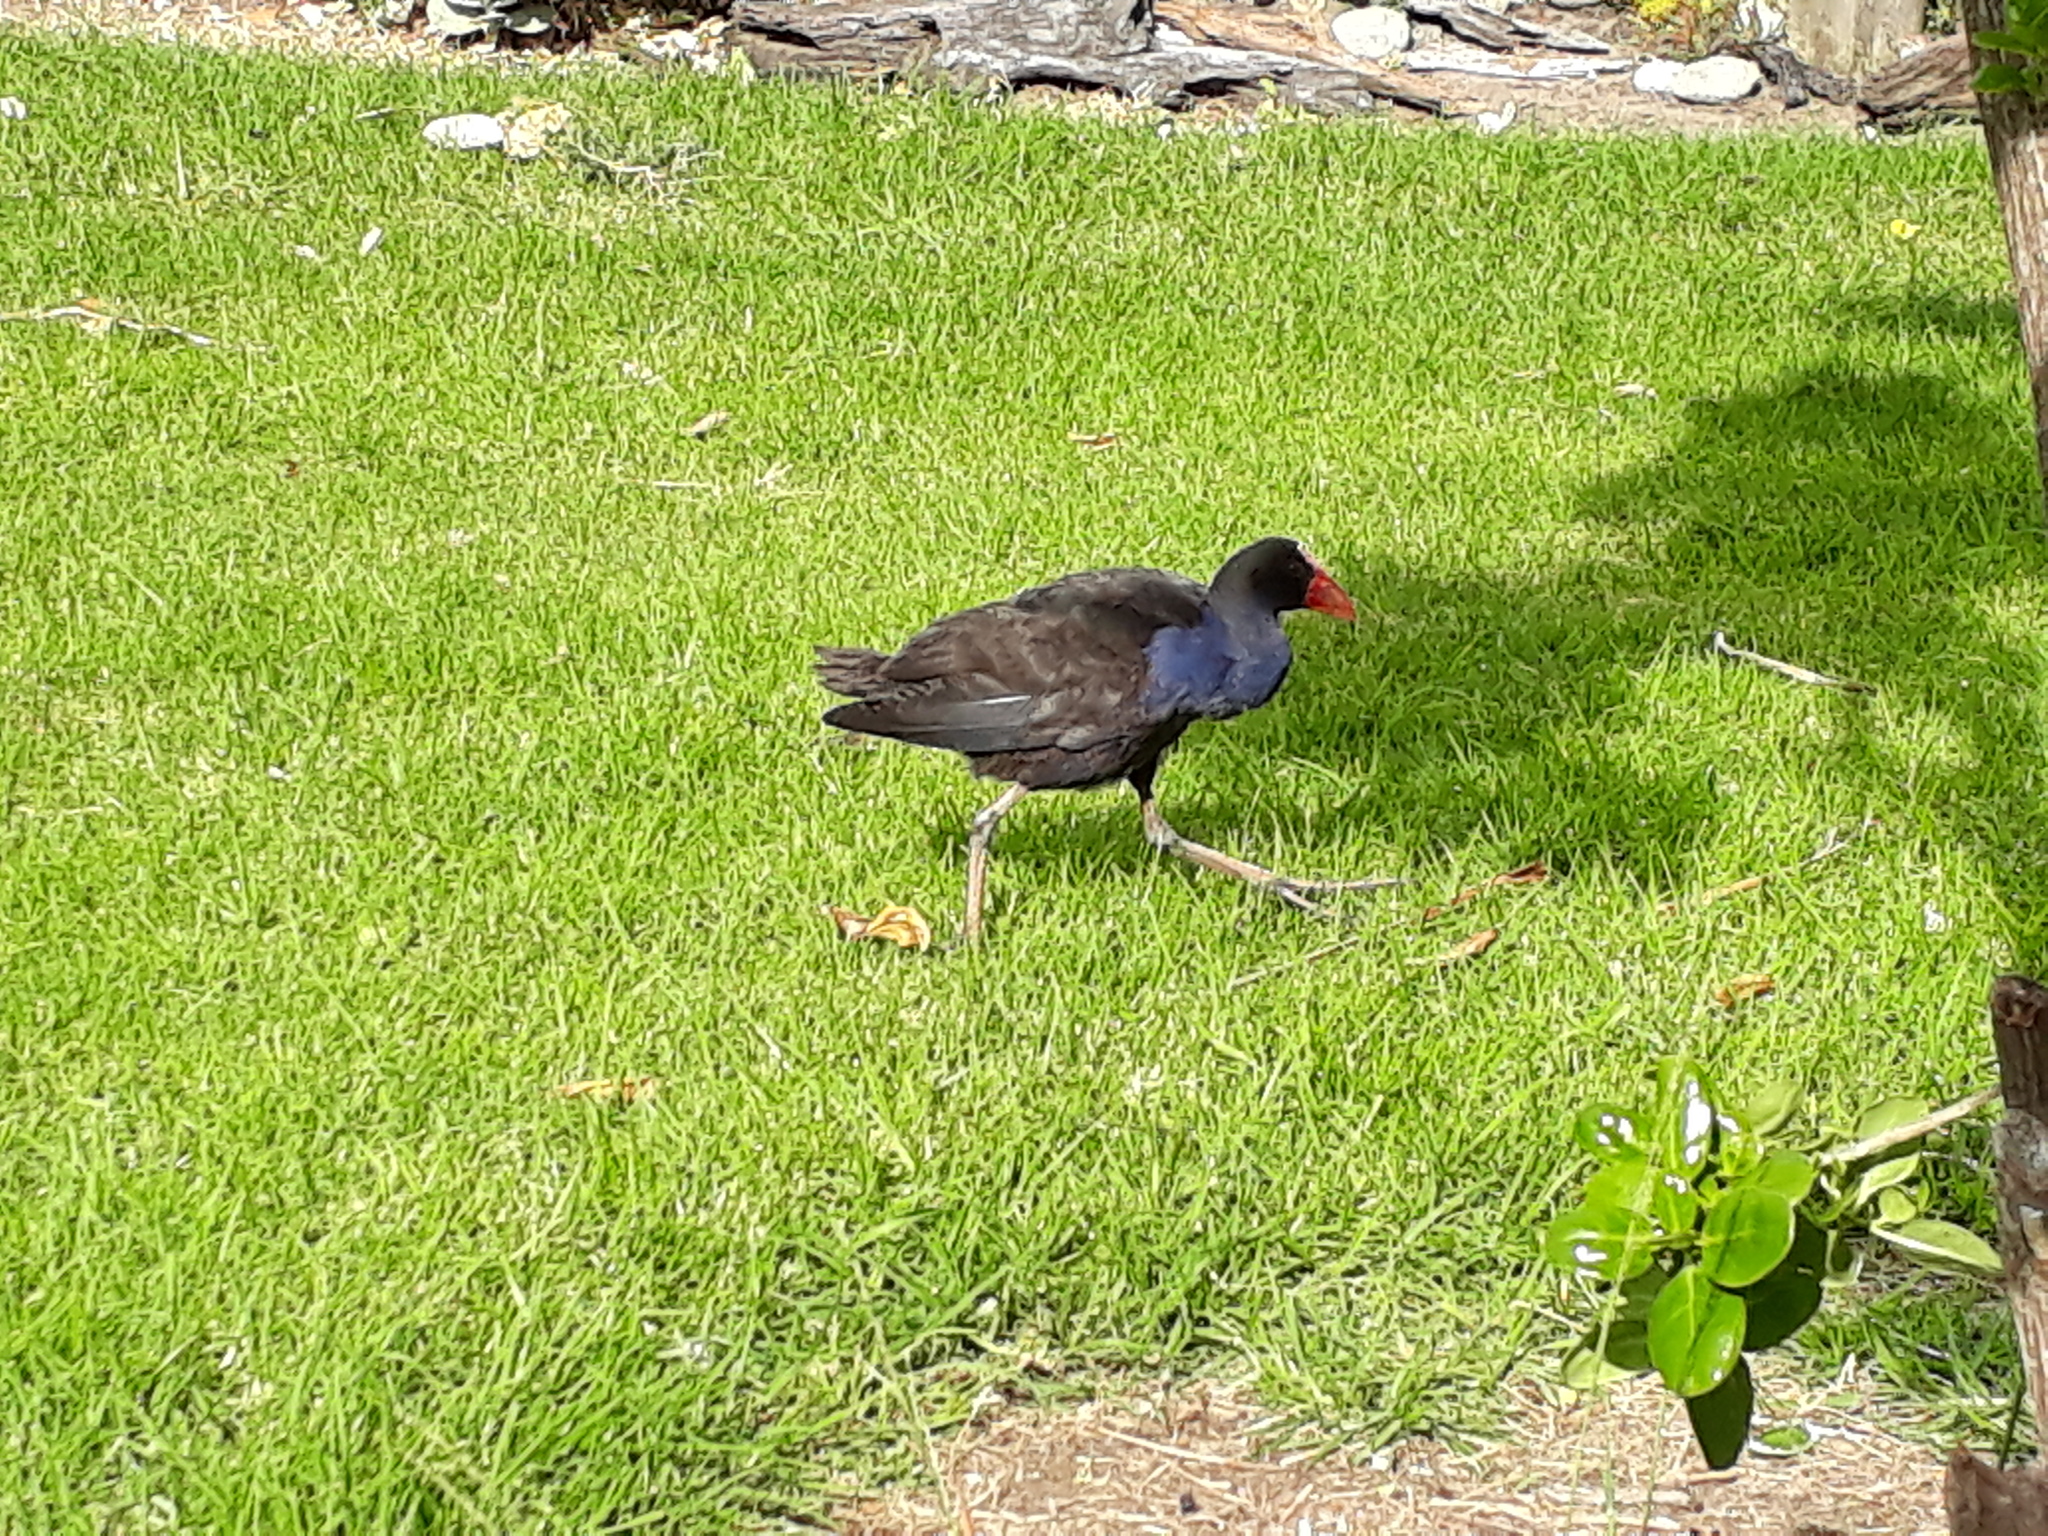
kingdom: Animalia
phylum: Chordata
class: Aves
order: Gruiformes
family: Rallidae
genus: Porphyrio
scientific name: Porphyrio melanotus
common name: Australasian swamphen
